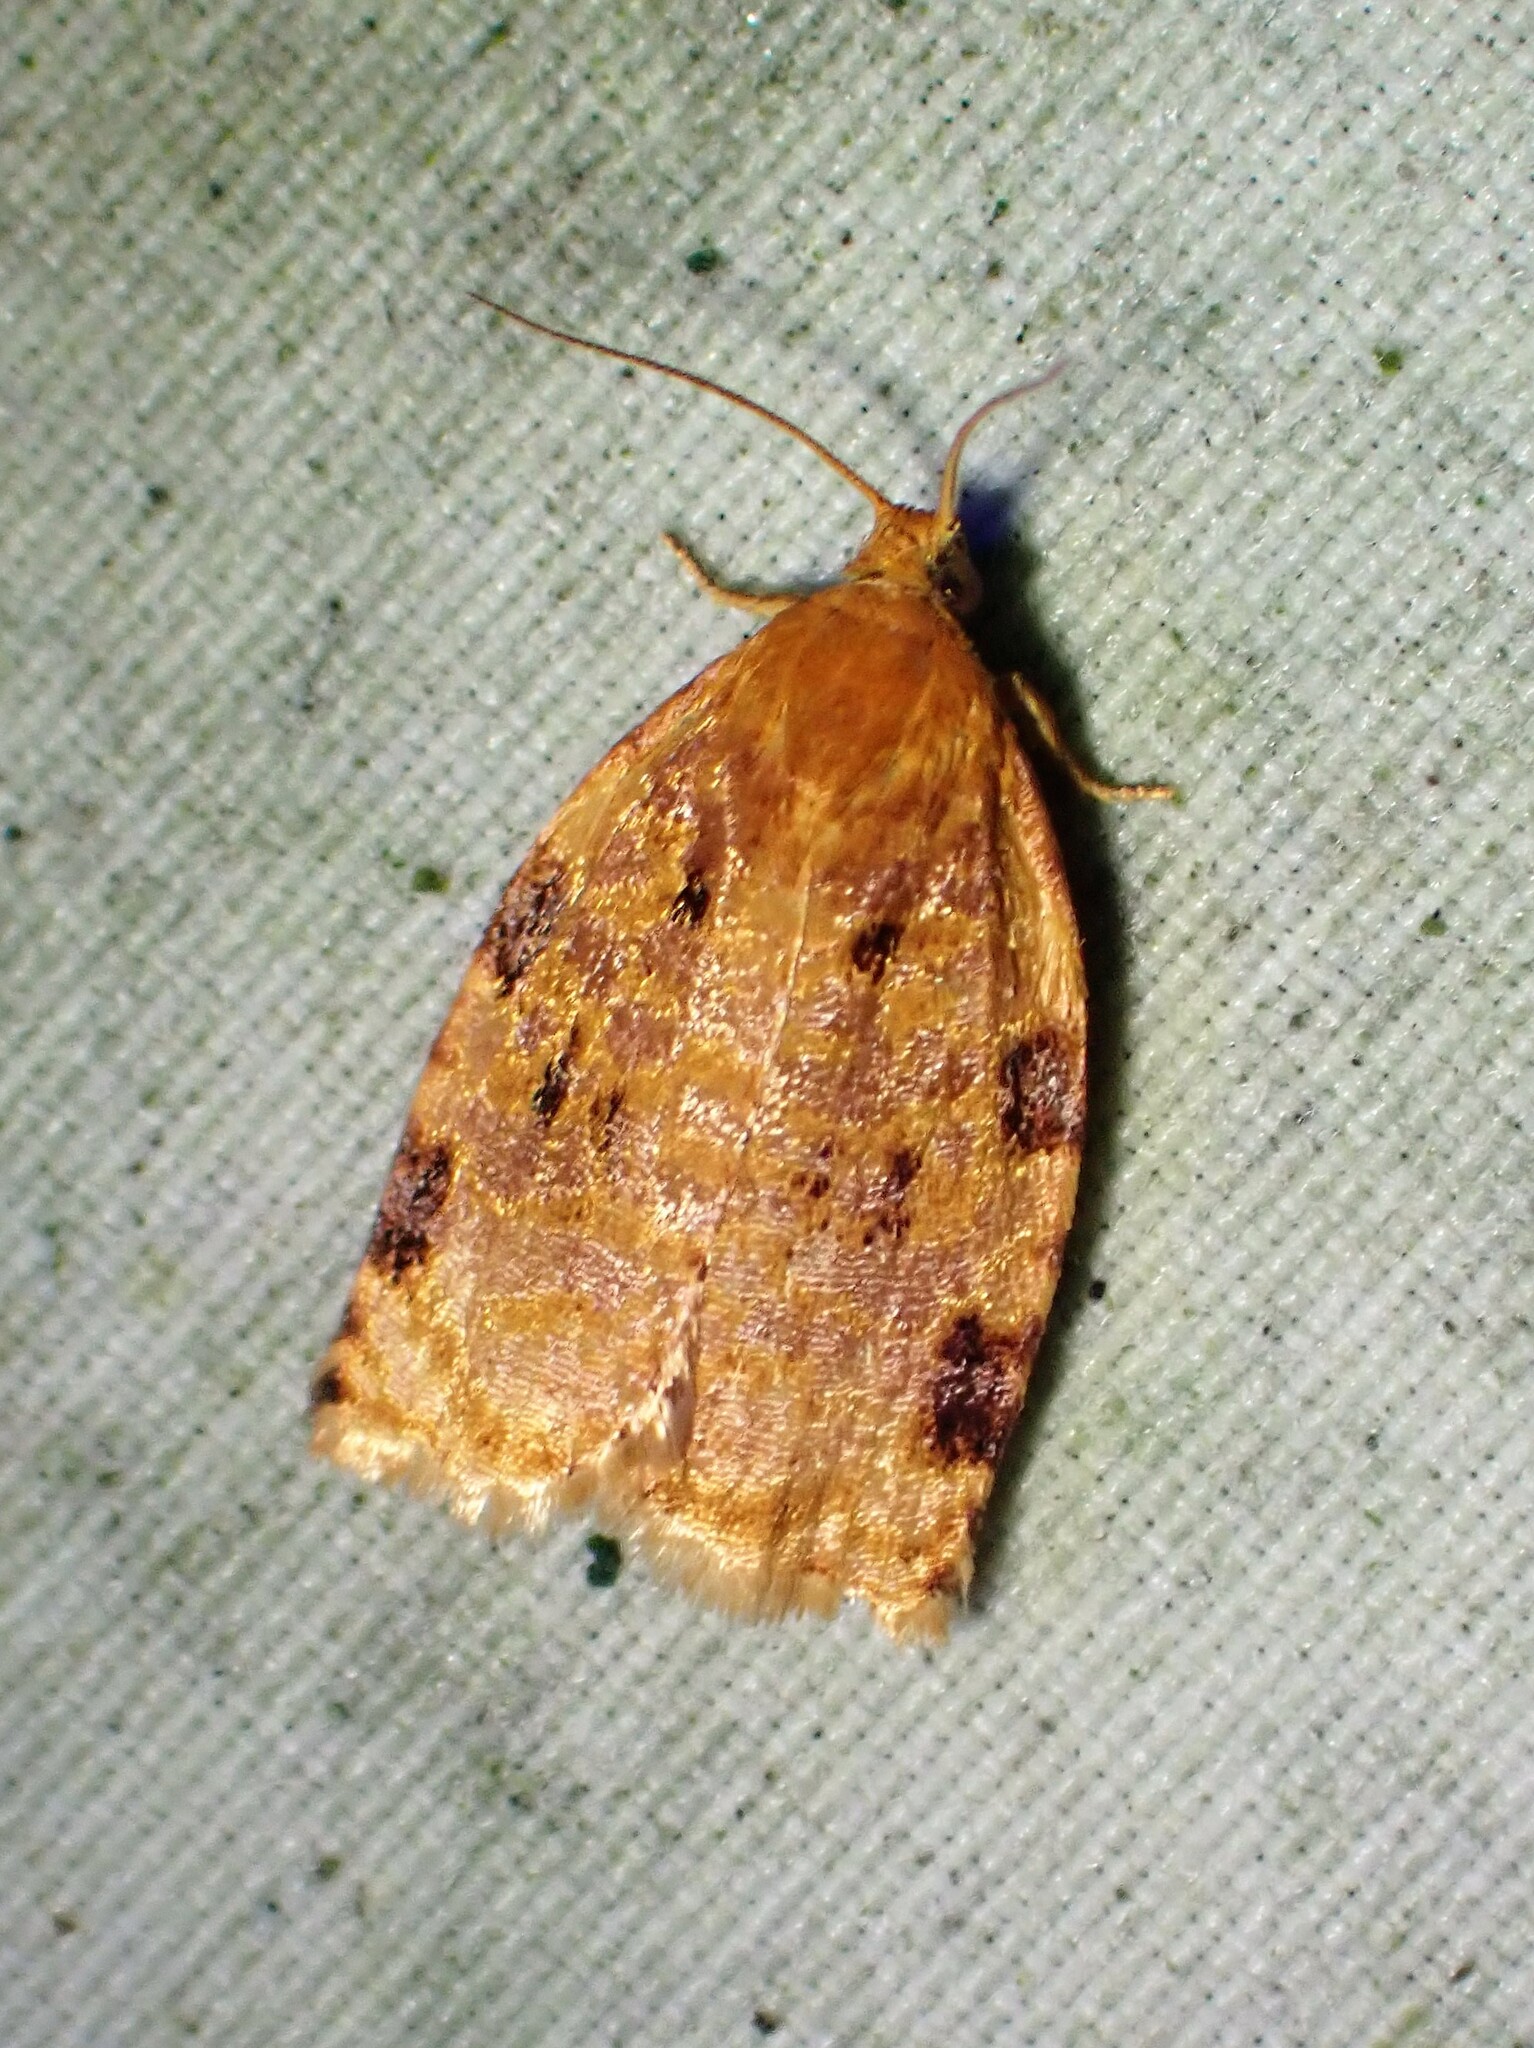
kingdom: Animalia
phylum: Arthropoda
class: Insecta
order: Lepidoptera
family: Tortricidae
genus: Archips
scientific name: Archips cerasivorana
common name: Uglynest caterpillar
